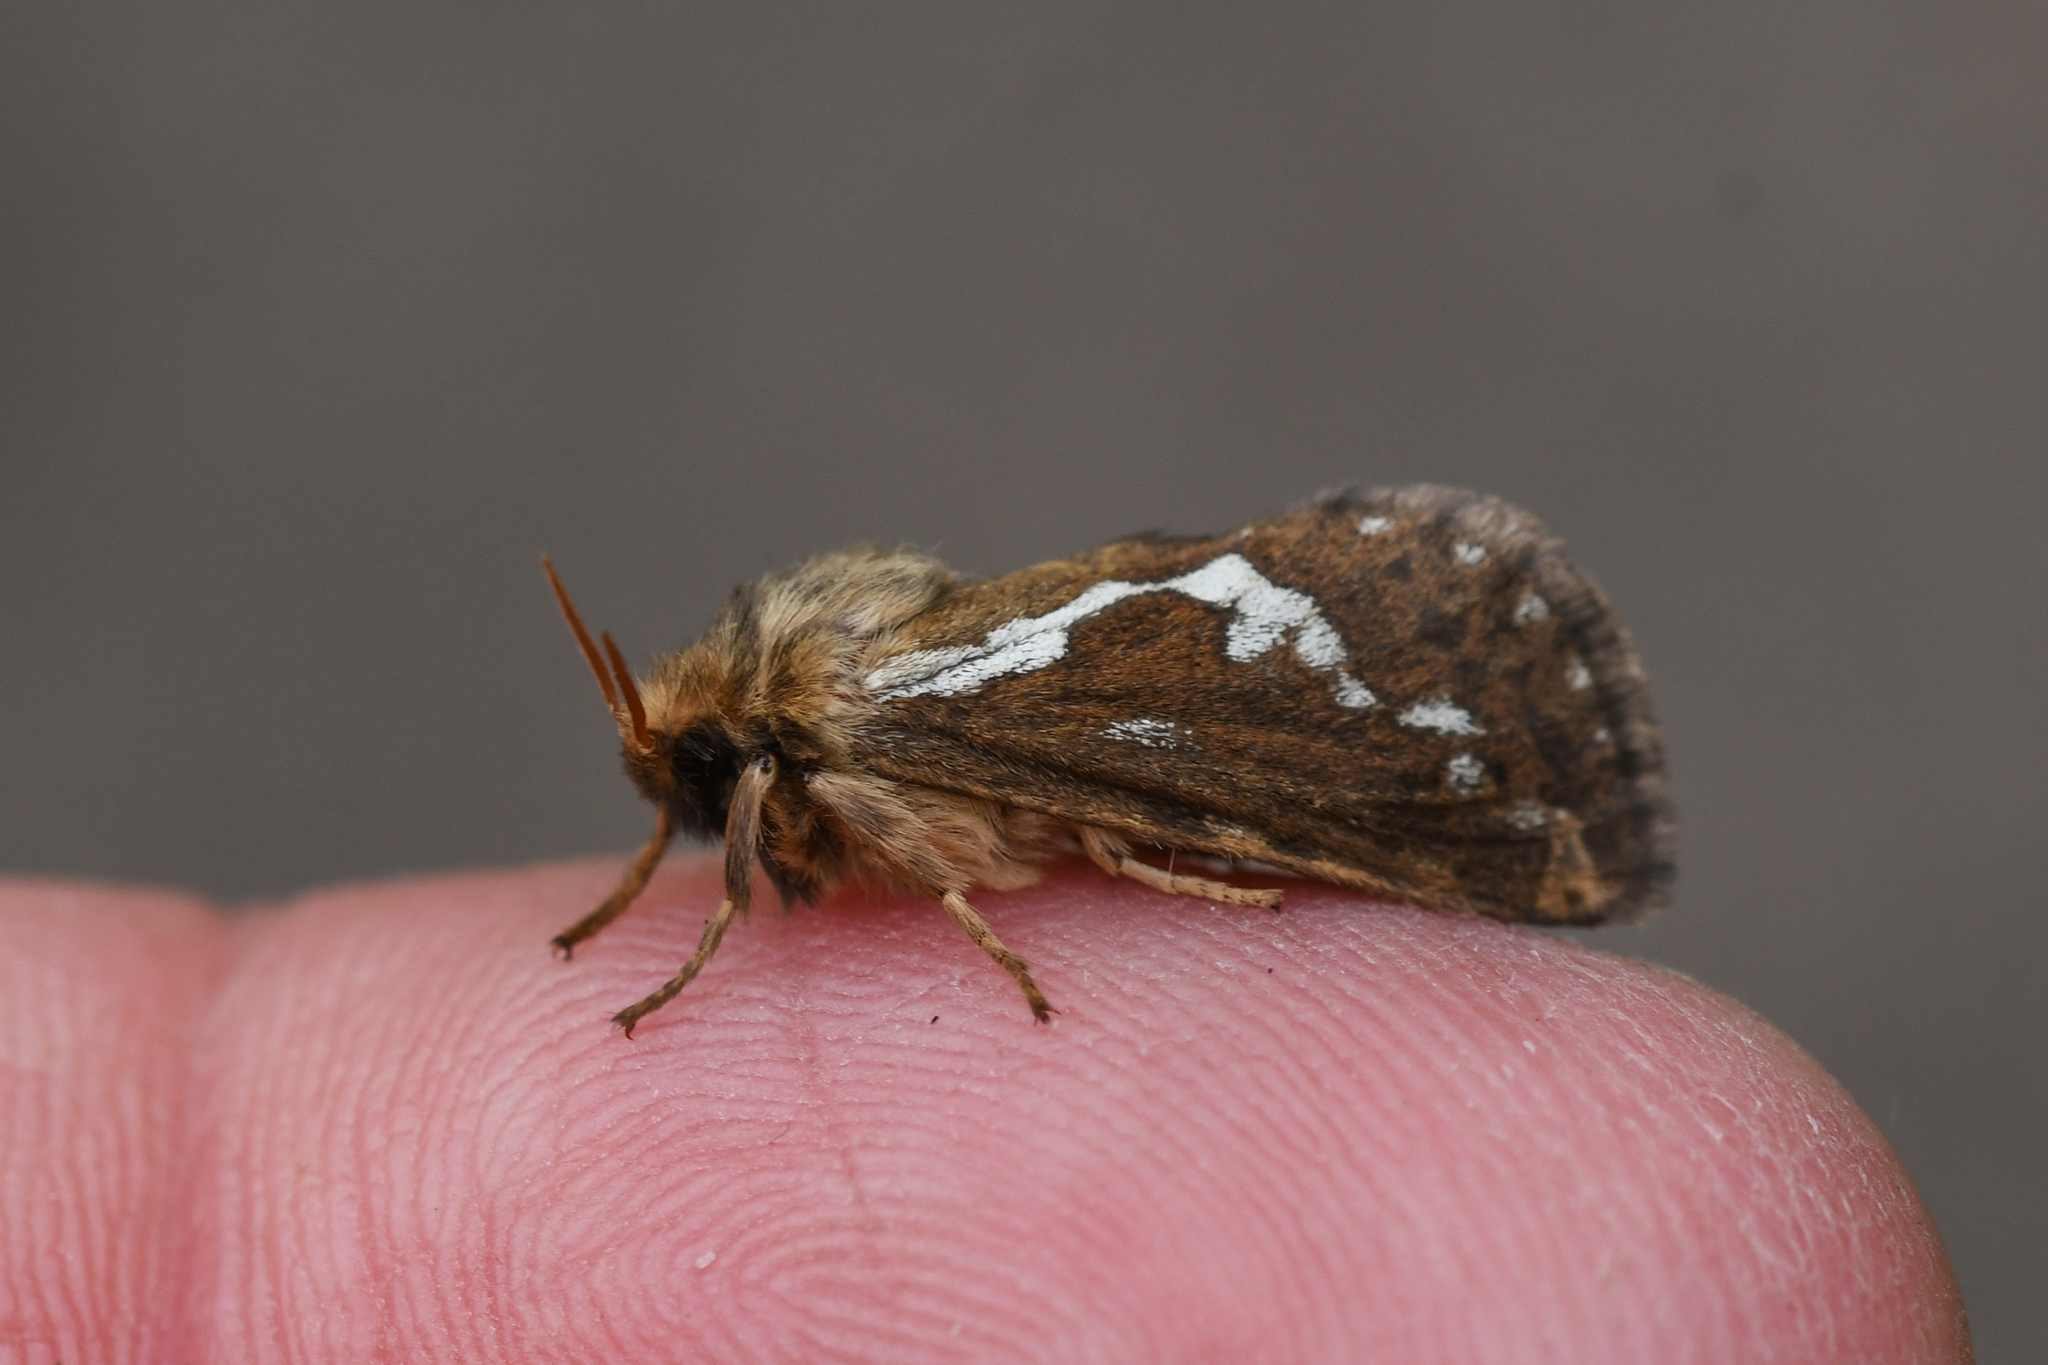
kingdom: Animalia
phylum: Arthropoda
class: Insecta
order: Lepidoptera
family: Hepialidae
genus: Korscheltellus
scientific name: Korscheltellus lupulina
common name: Common swift
